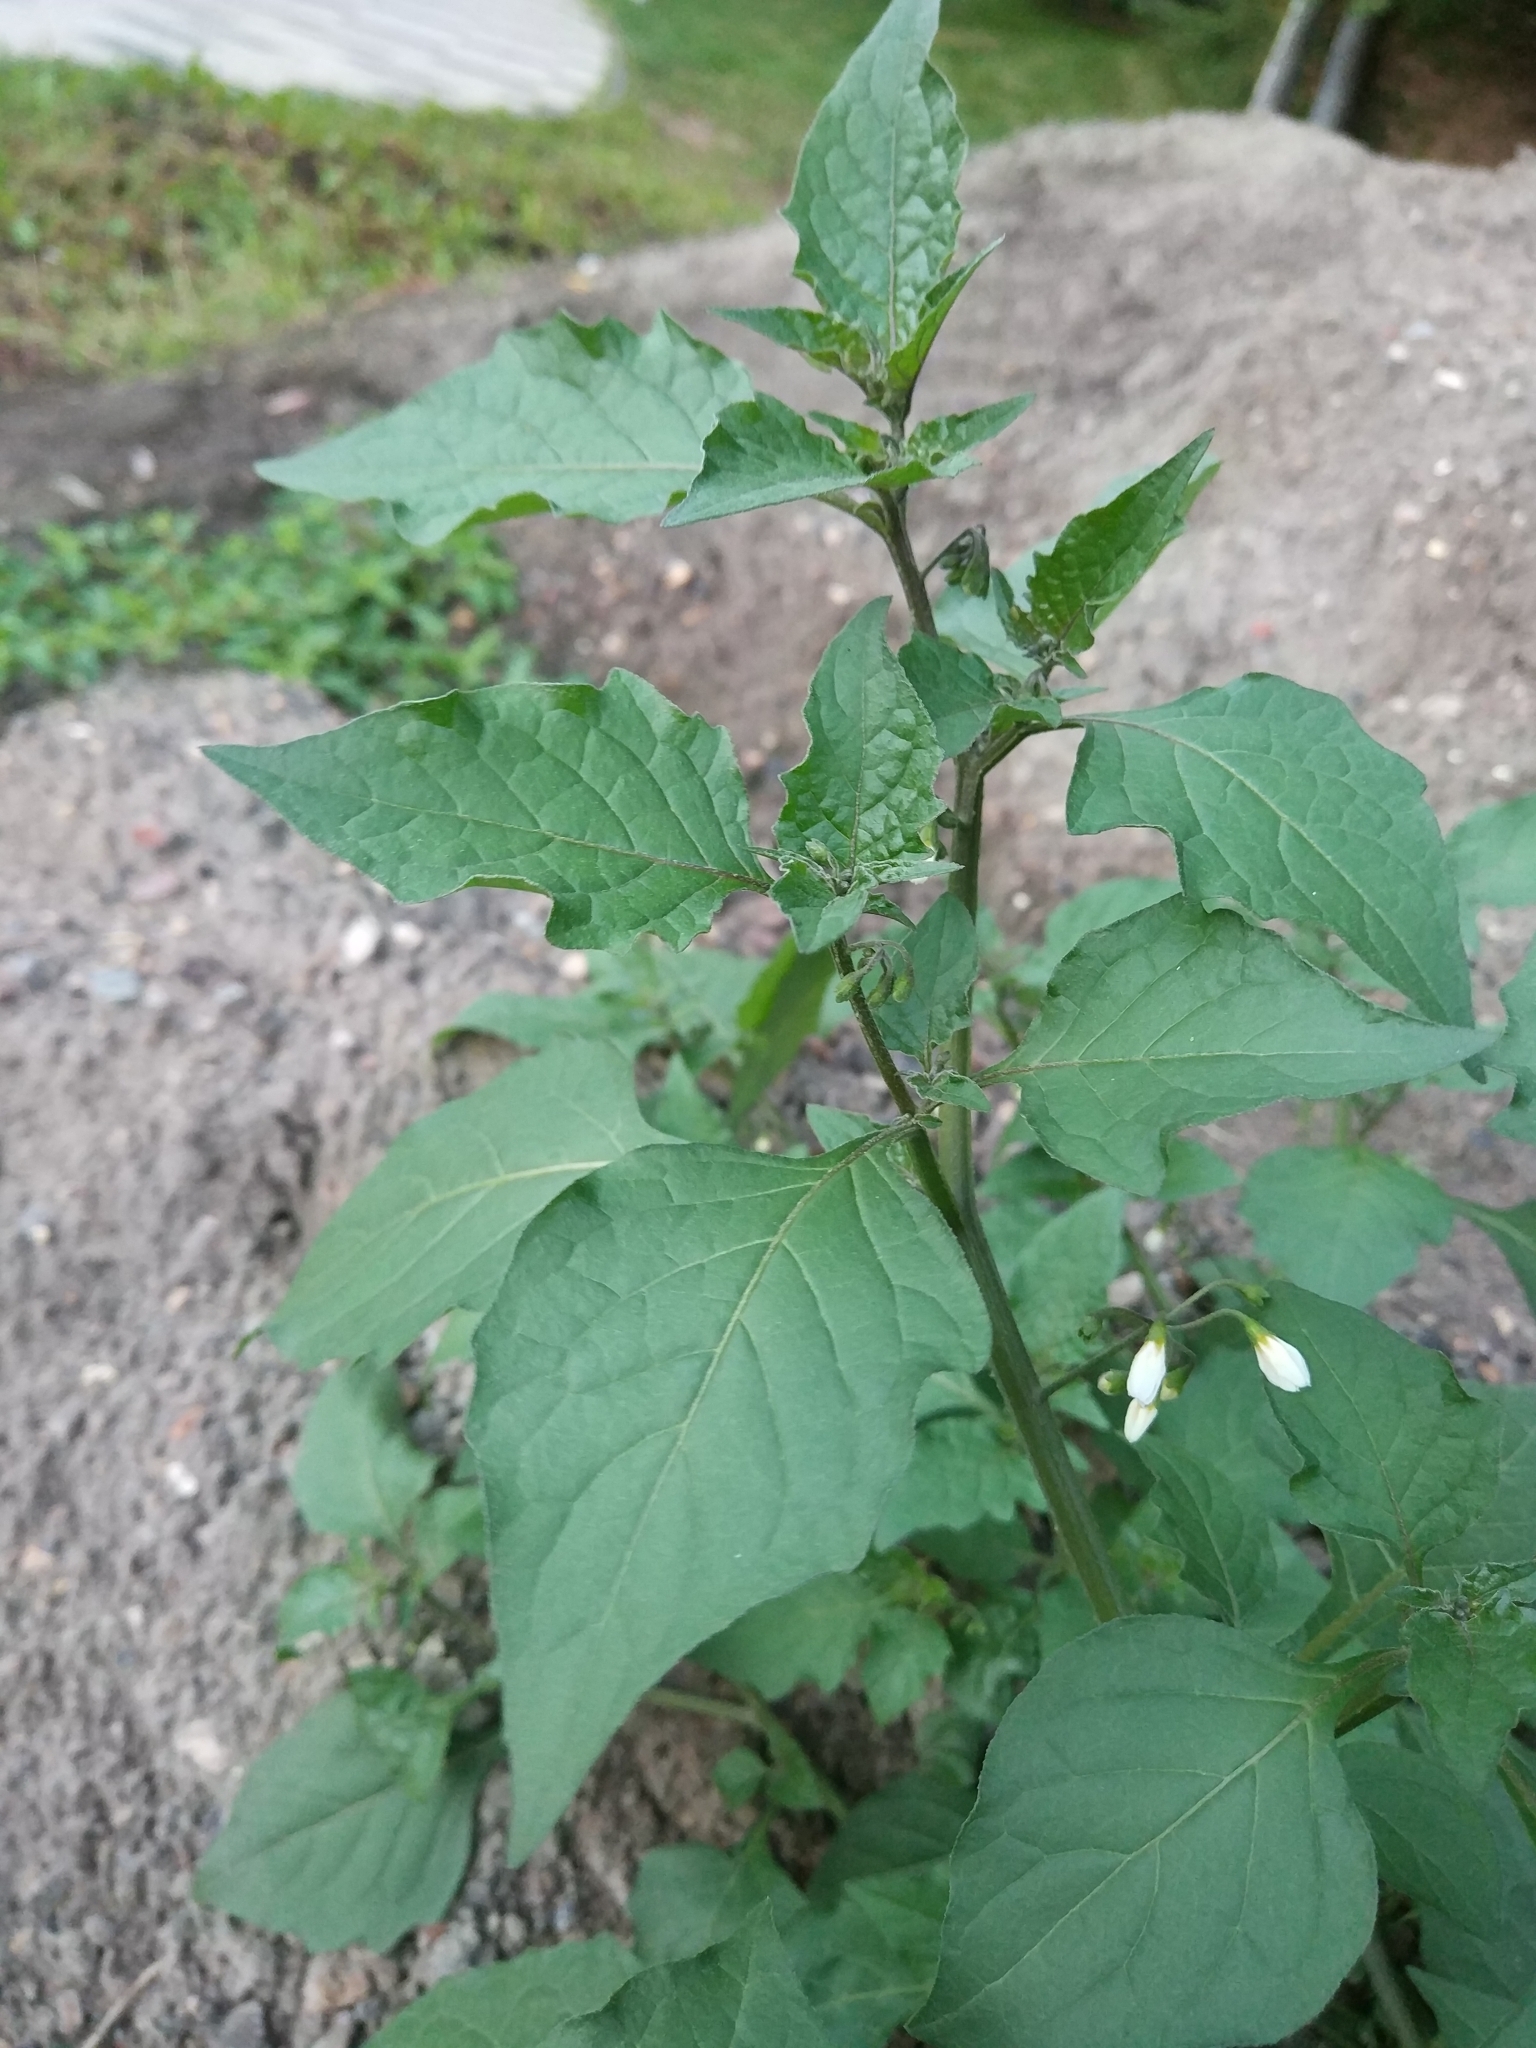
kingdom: Plantae
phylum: Tracheophyta
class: Magnoliopsida
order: Solanales
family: Solanaceae
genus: Solanum
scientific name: Solanum nigrum
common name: Black nightshade
